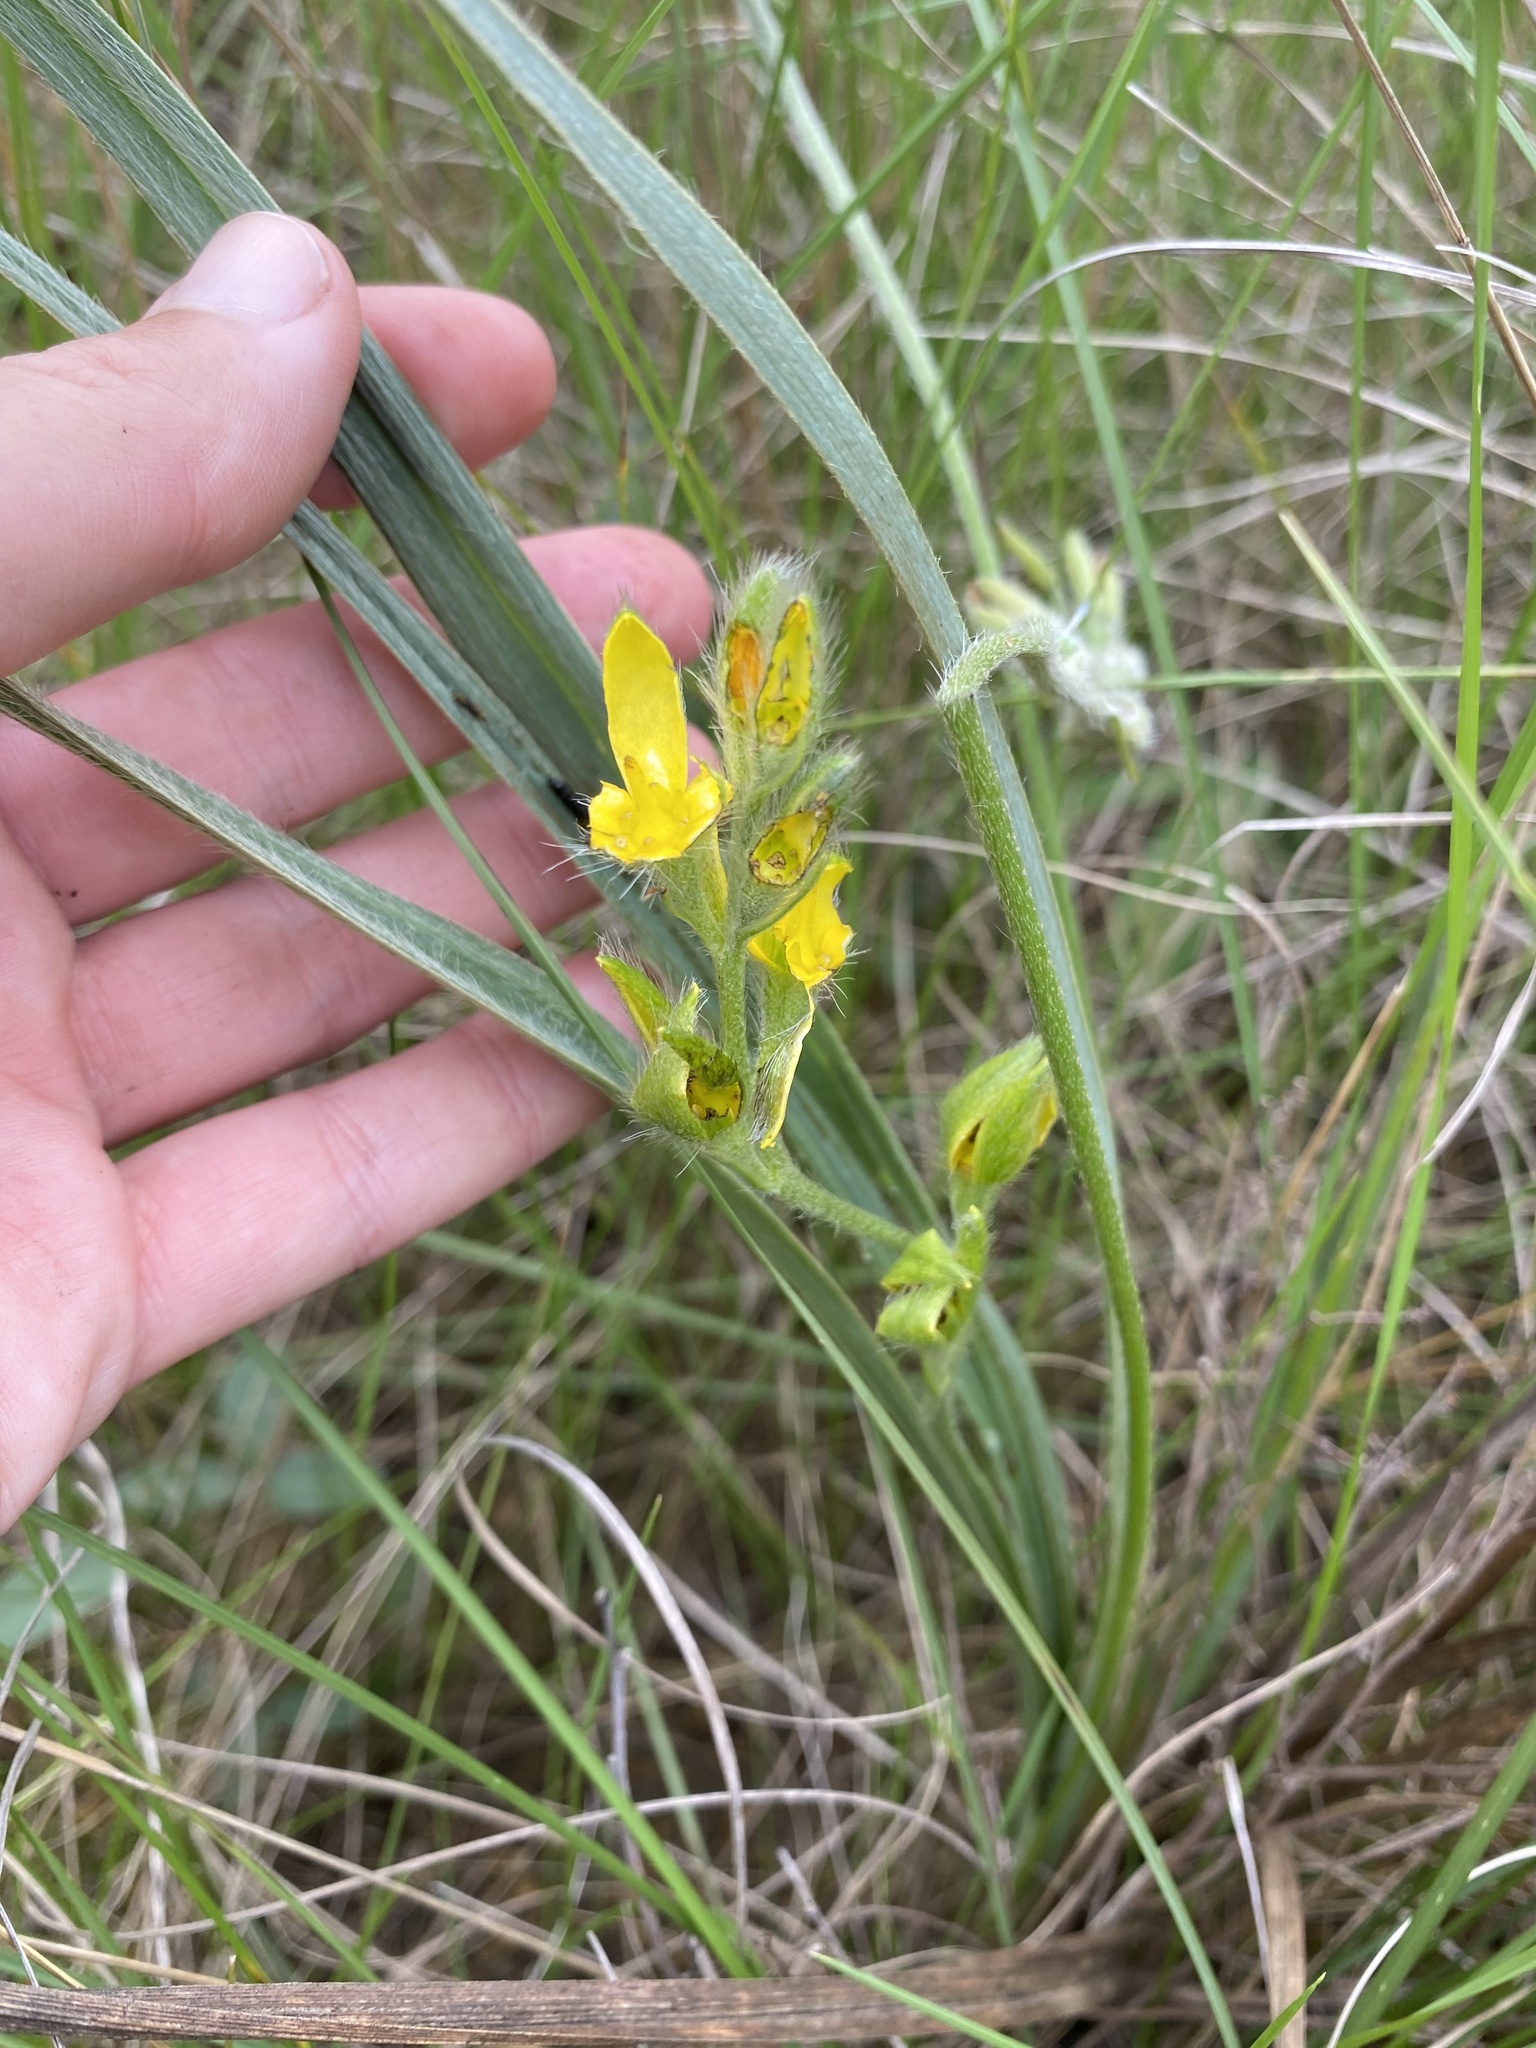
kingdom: Plantae
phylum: Tracheophyta
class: Liliopsida
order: Asparagales
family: Hypoxidaceae
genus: Hypoxis
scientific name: Hypoxis rigidula
